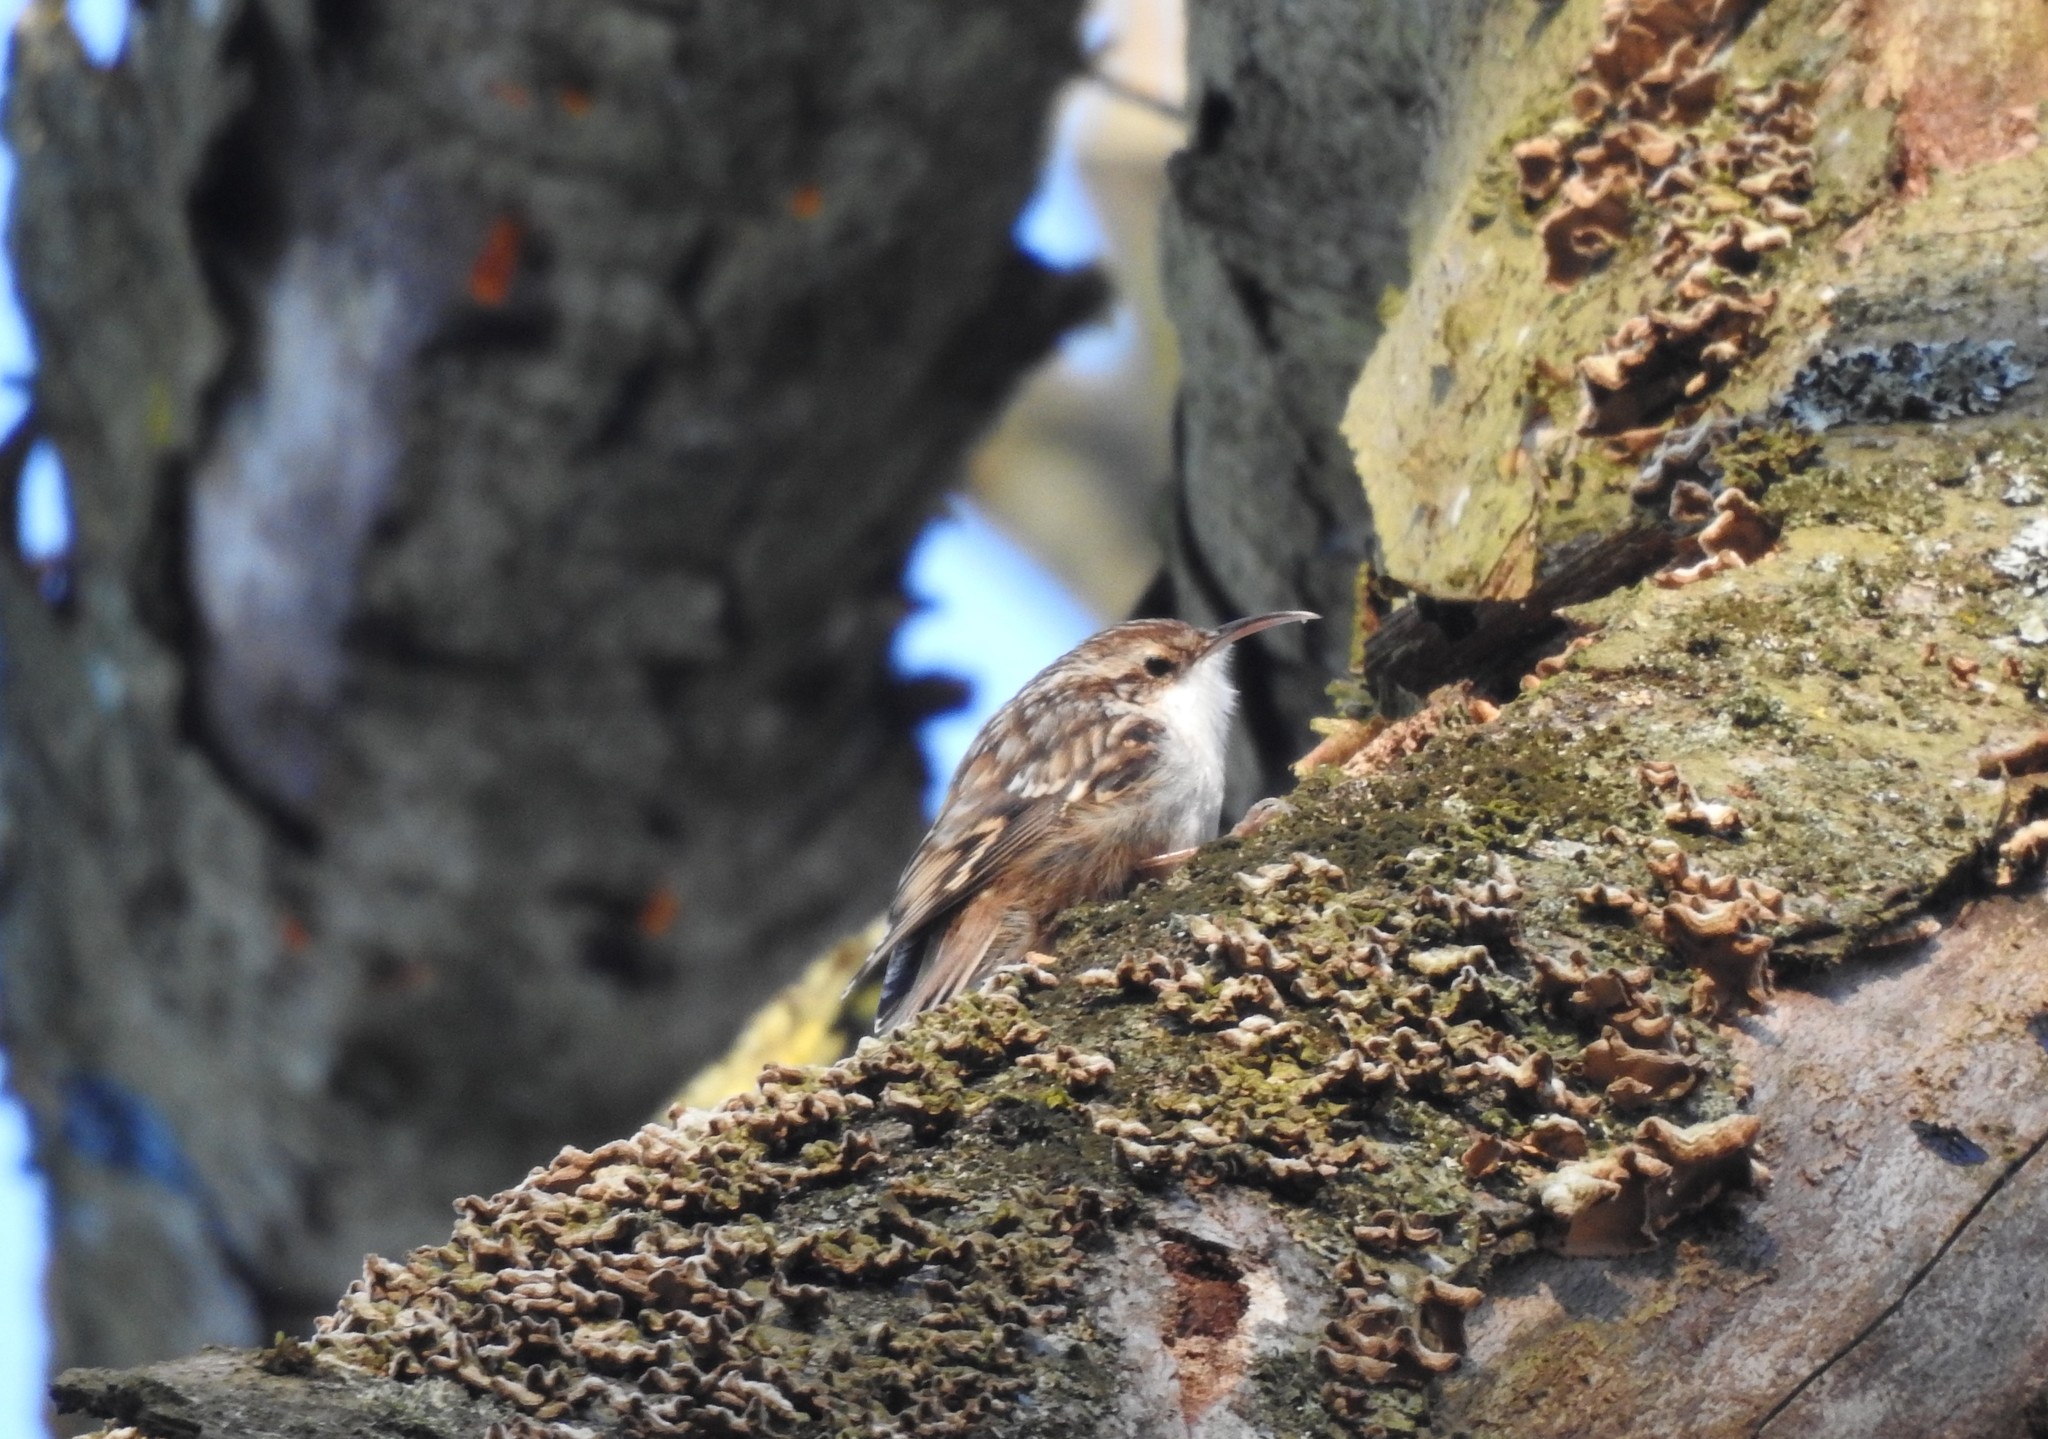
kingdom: Animalia
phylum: Chordata
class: Aves
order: Passeriformes
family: Certhiidae
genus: Certhia
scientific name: Certhia brachydactyla
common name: Short-toed treecreeper
